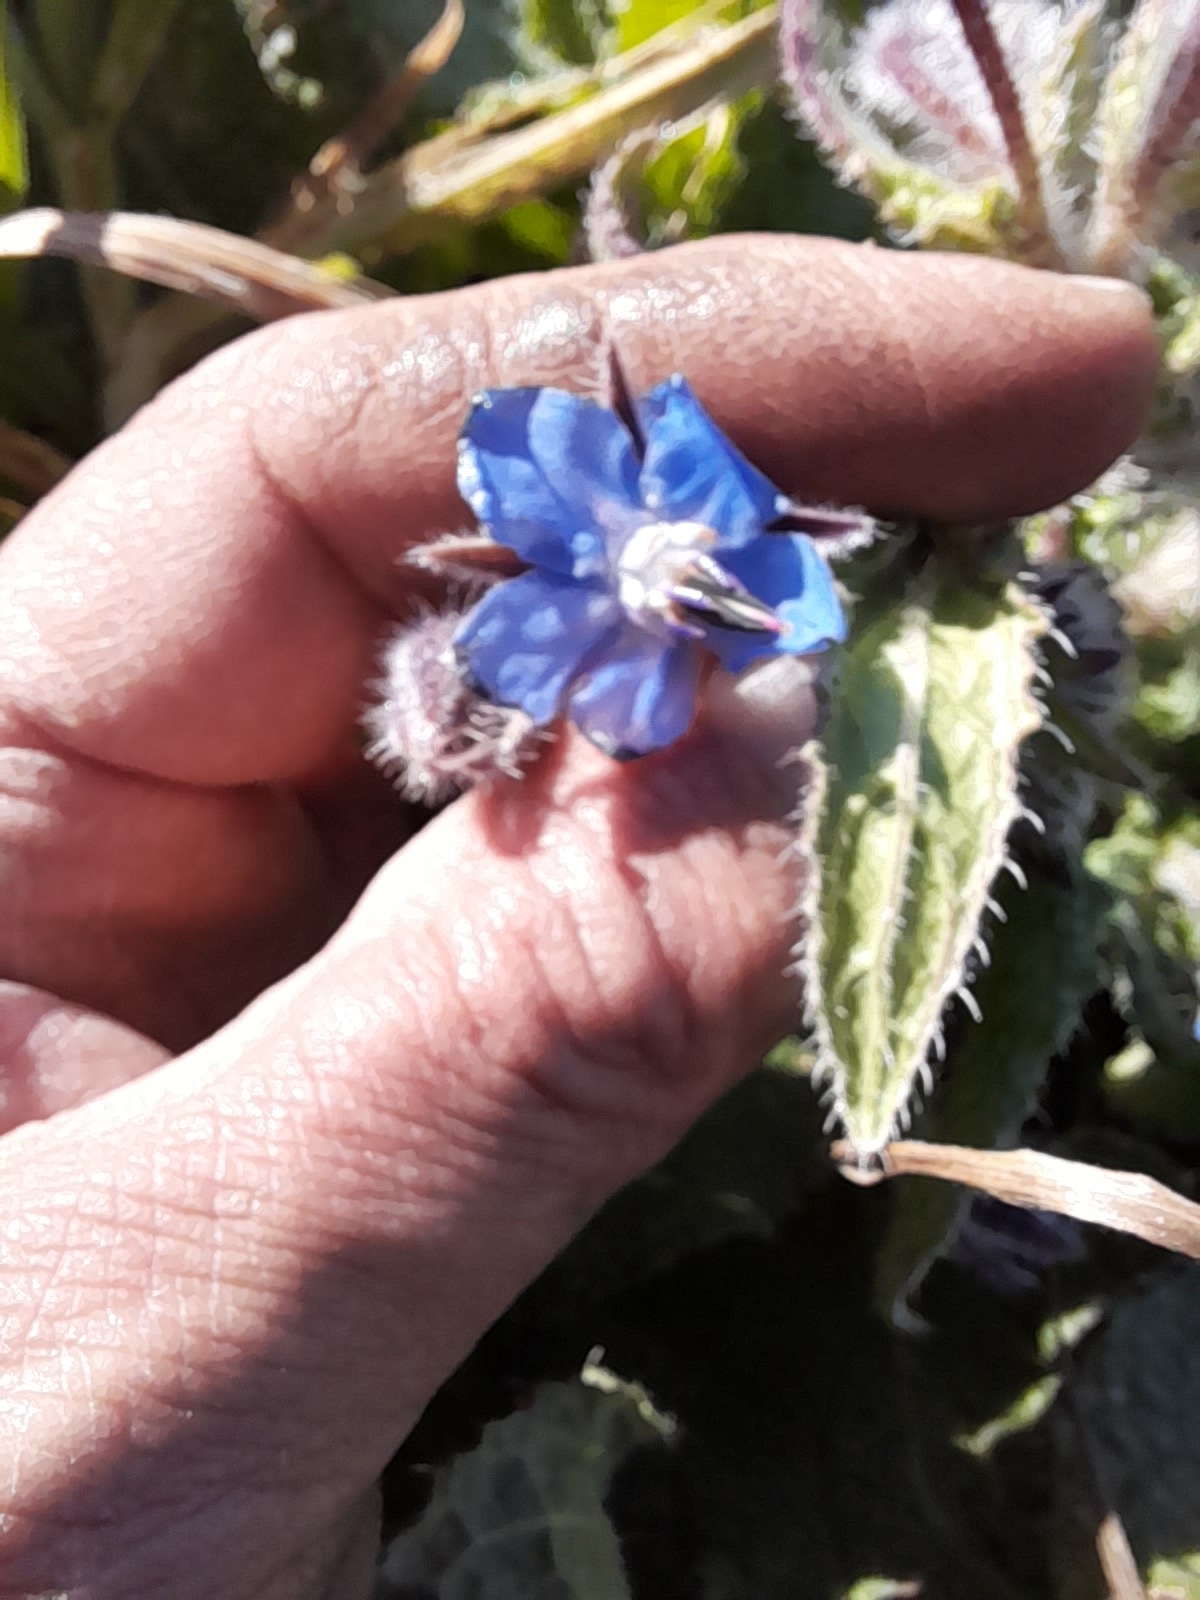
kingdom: Plantae
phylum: Tracheophyta
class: Magnoliopsida
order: Boraginales
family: Boraginaceae
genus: Borago
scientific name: Borago officinalis
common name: Borage
